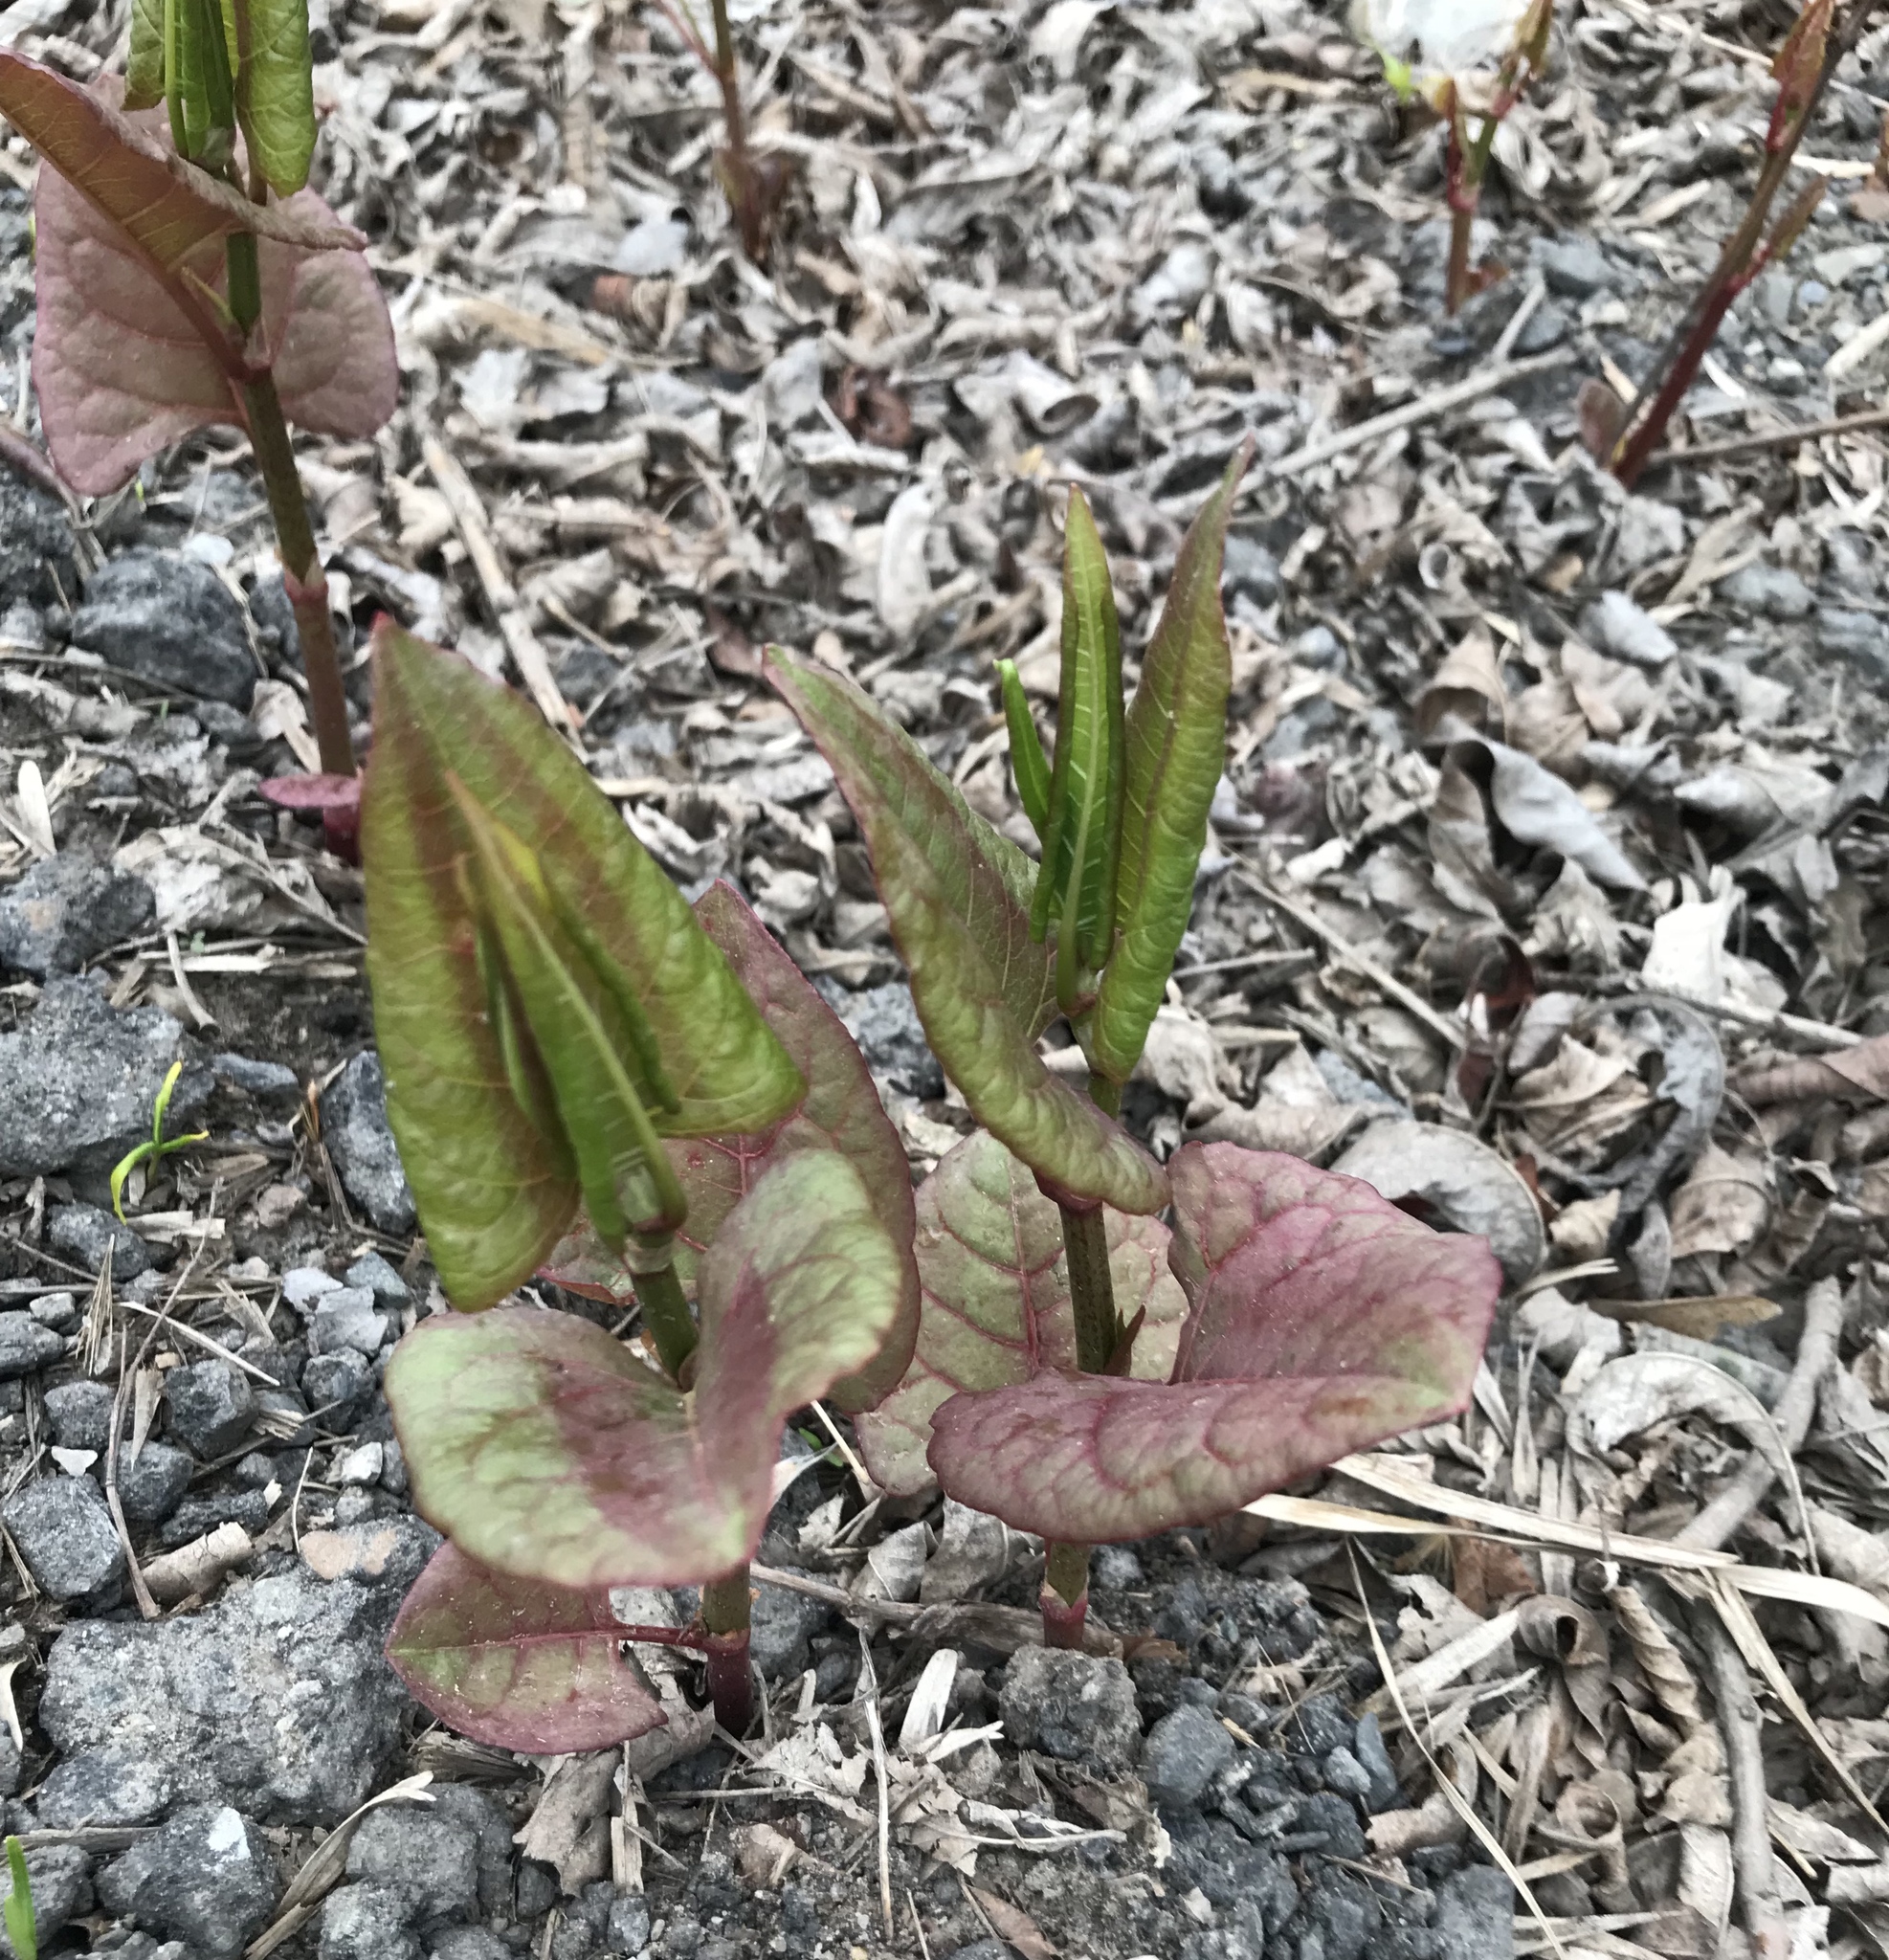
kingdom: Plantae
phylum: Tracheophyta
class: Magnoliopsida
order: Caryophyllales
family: Polygonaceae
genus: Reynoutria
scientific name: Reynoutria japonica
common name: Japanese knotweed
